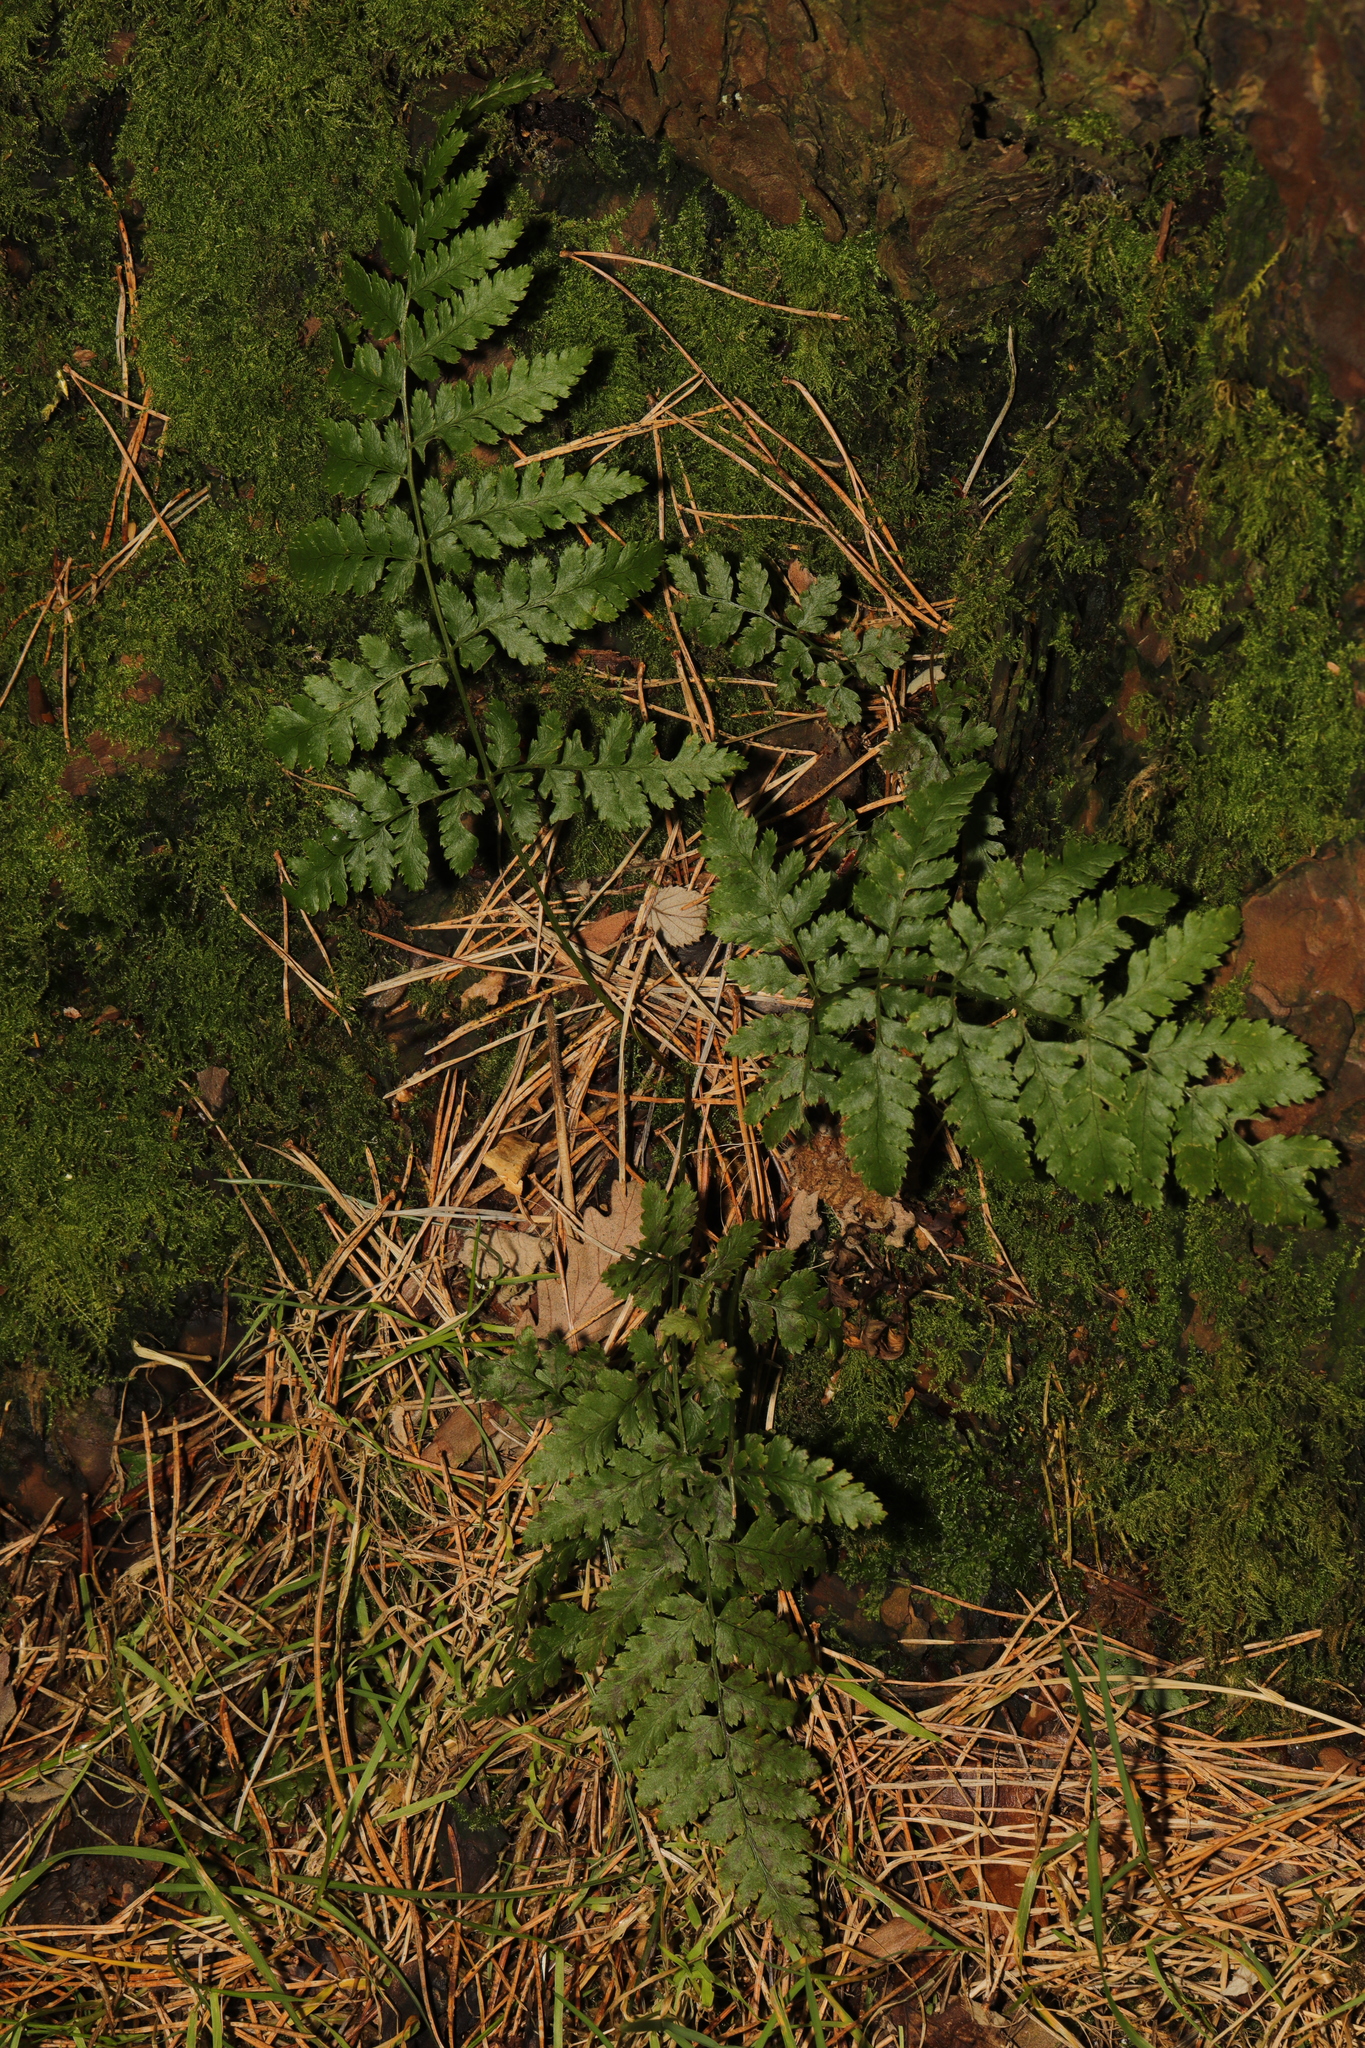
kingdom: Plantae
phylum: Tracheophyta
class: Polypodiopsida
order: Polypodiales
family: Dryopteridaceae
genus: Dryopteris
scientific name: Dryopteris dilatata
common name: Broad buckler-fern
